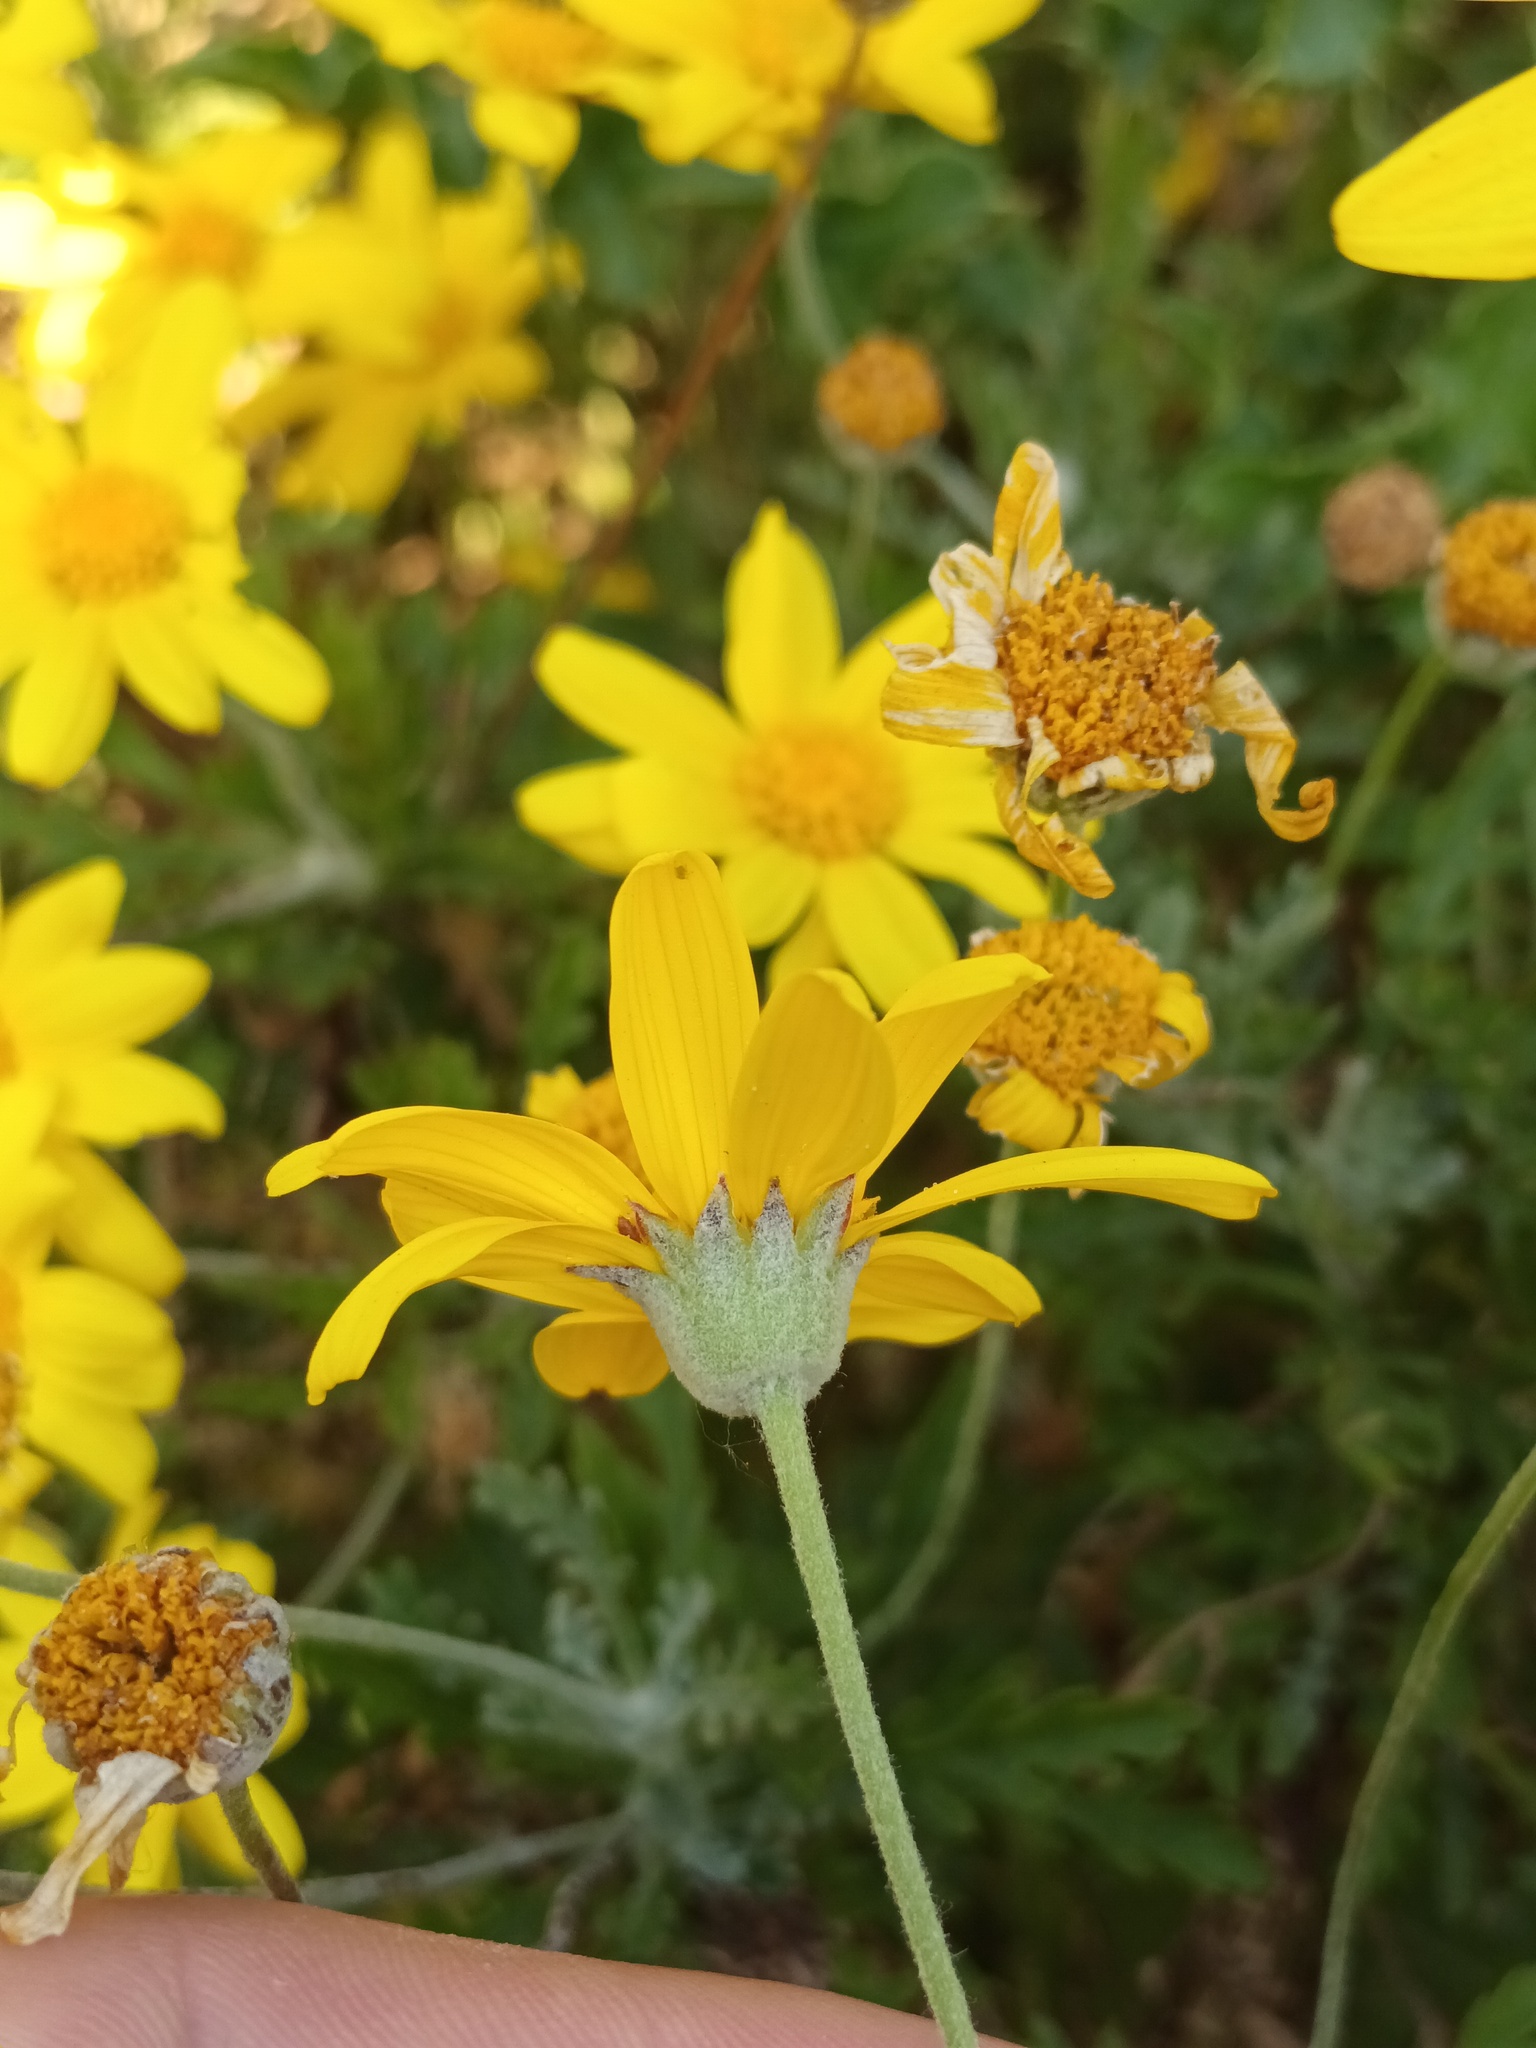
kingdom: Plantae
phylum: Tracheophyta
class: Magnoliopsida
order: Asterales
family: Asteraceae
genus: Jacobaea
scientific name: Jacobaea maritima
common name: Silver ragwort
